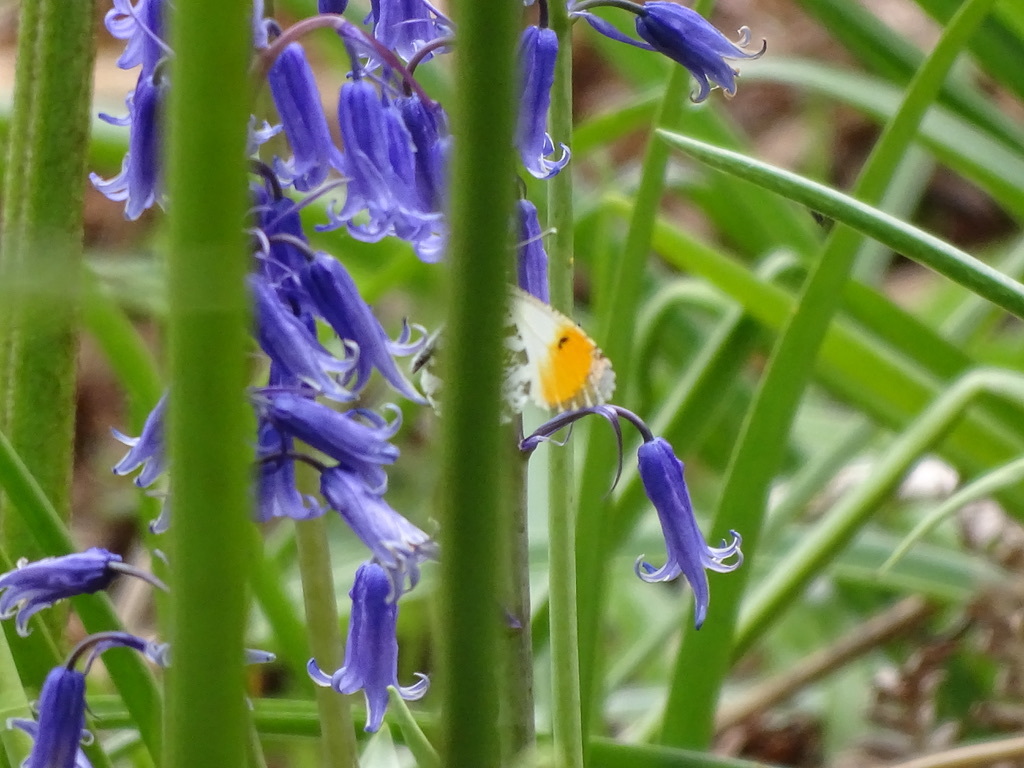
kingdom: Animalia
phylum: Arthropoda
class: Insecta
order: Lepidoptera
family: Pieridae
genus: Anthocharis
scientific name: Anthocharis cardamines
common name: Orange-tip
